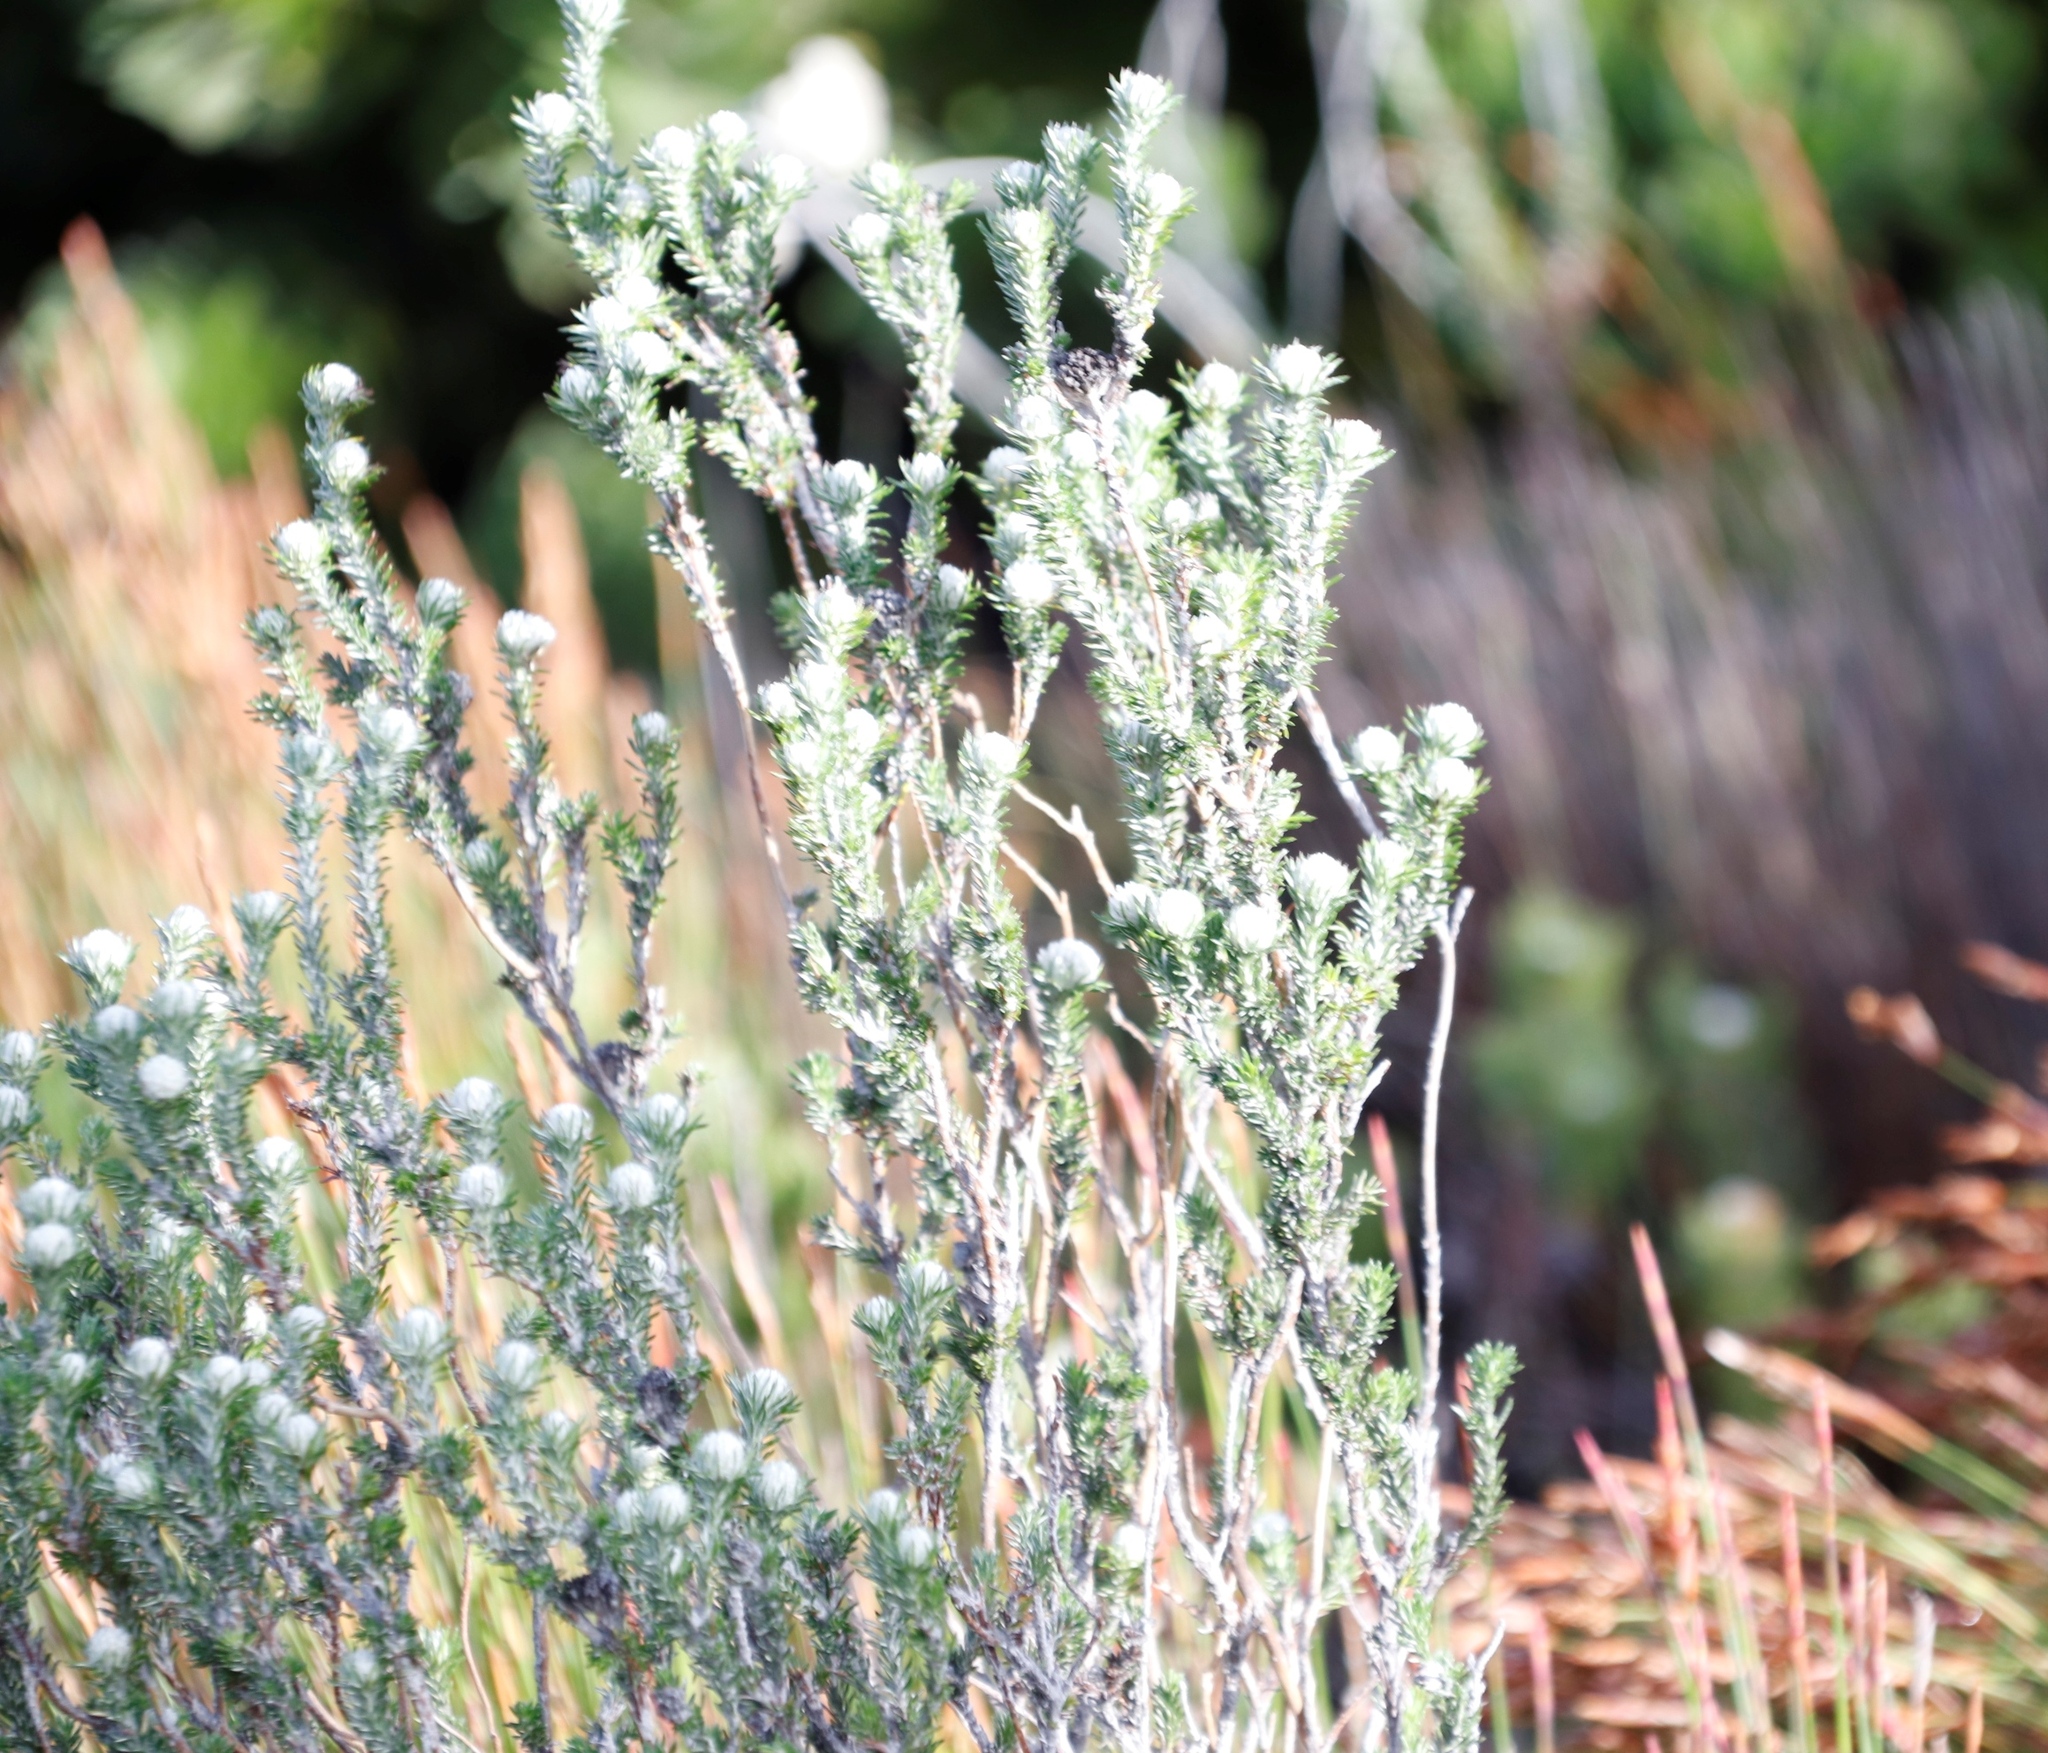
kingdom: Plantae
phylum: Tracheophyta
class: Magnoliopsida
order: Asterales
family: Asteraceae
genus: Metalasia
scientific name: Metalasia compacta
